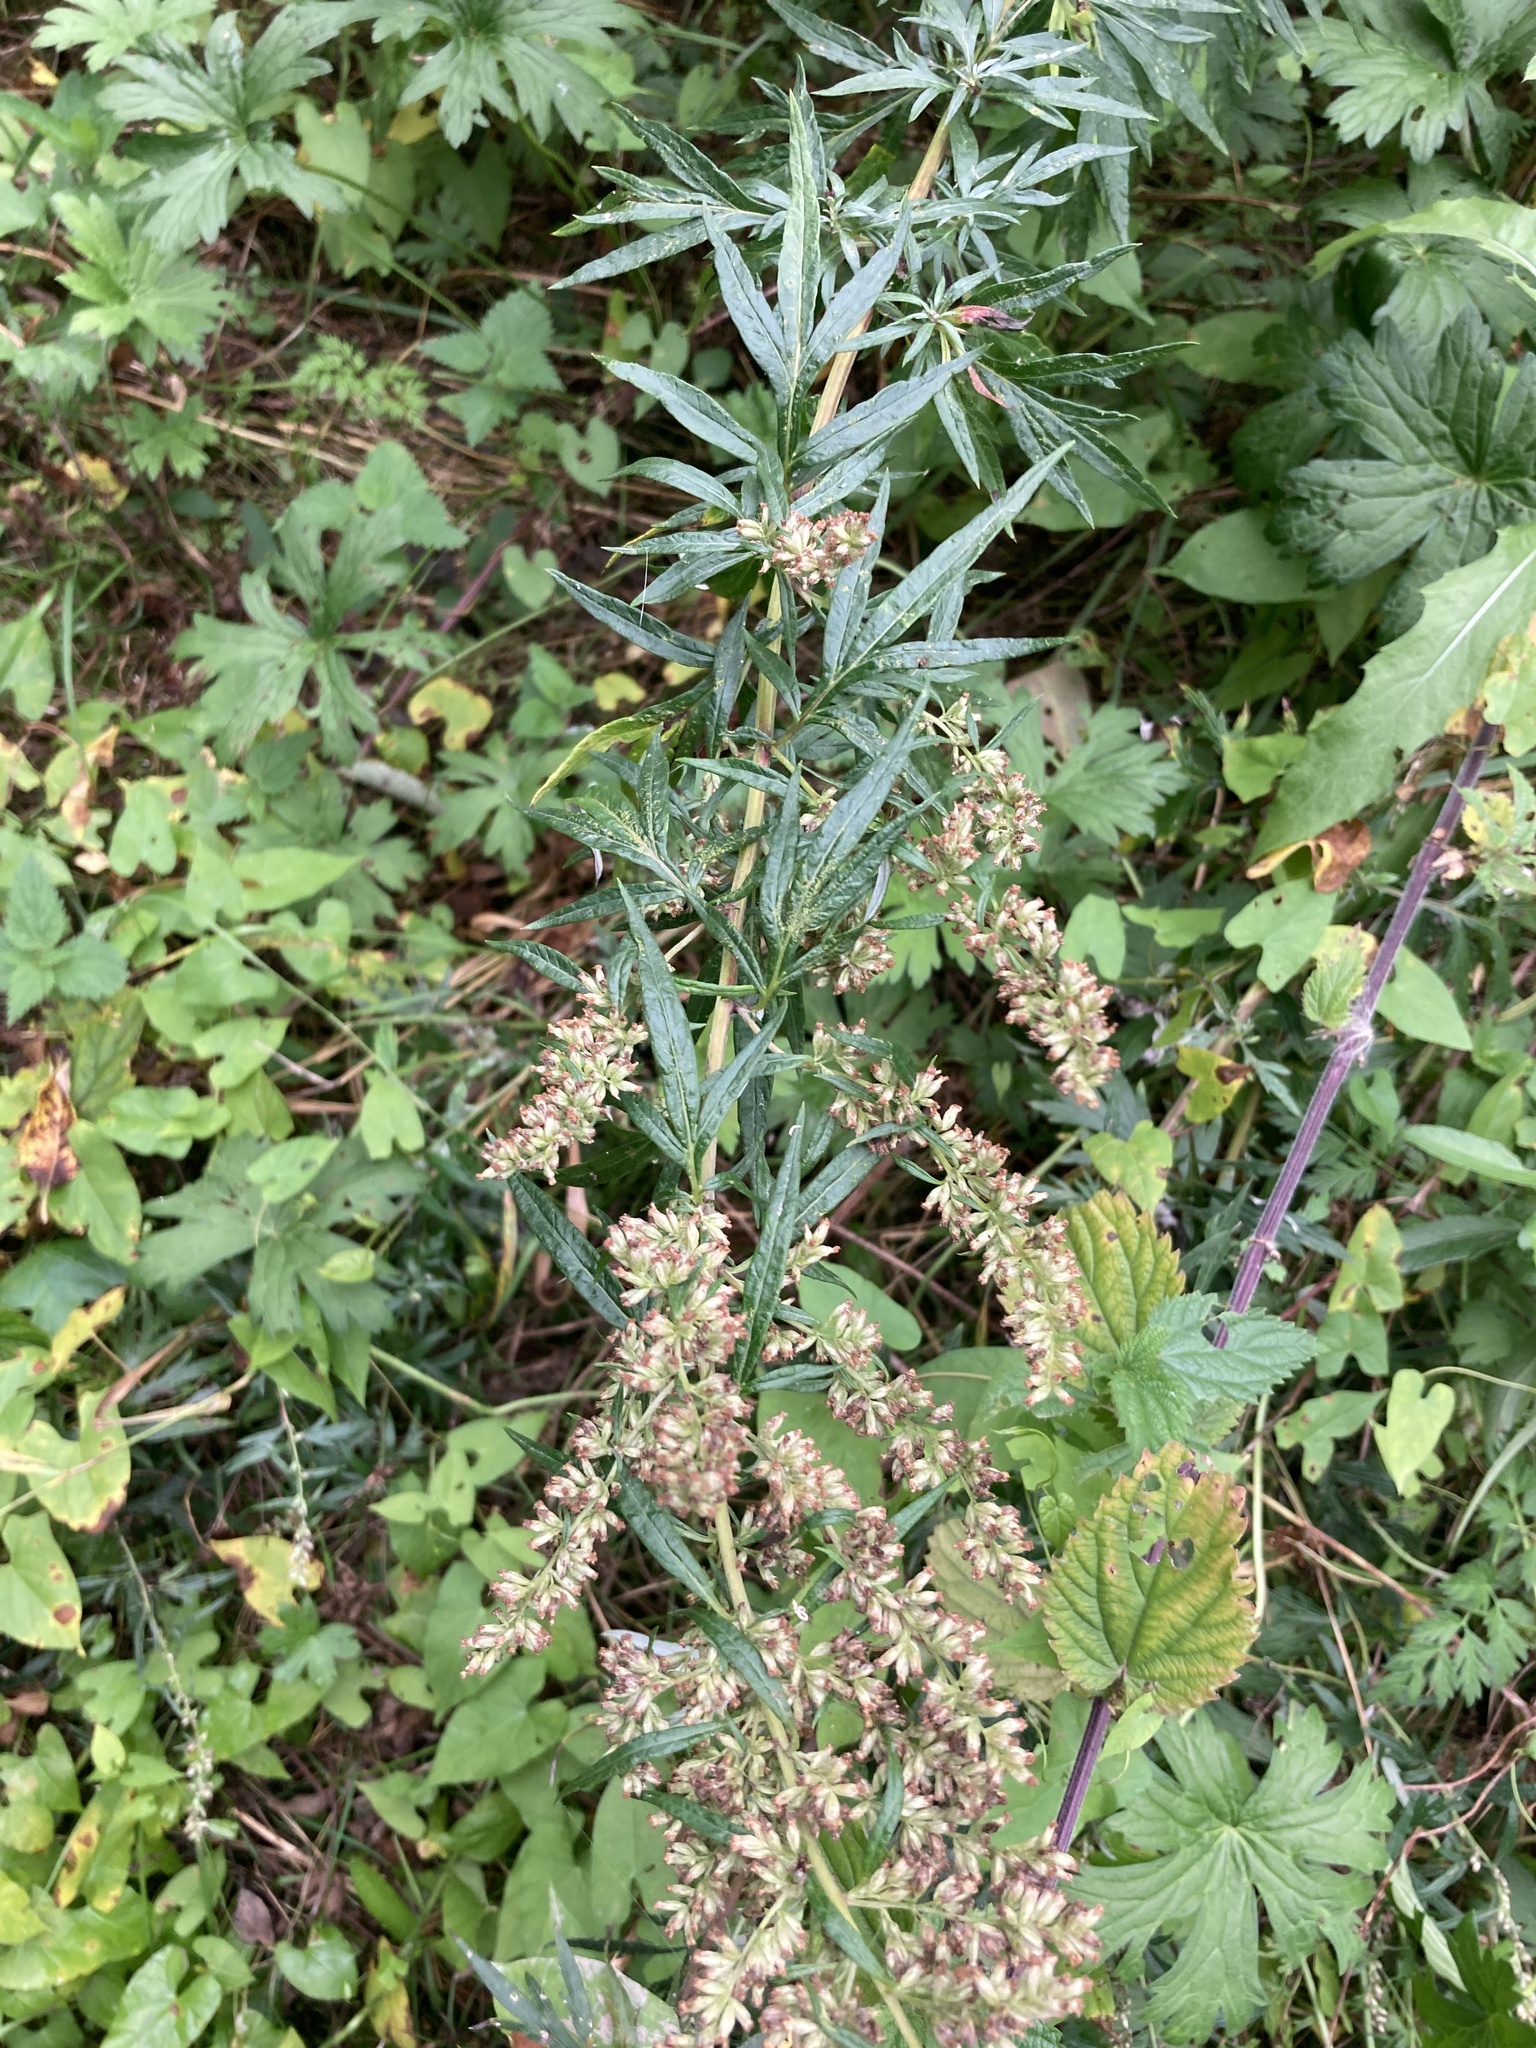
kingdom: Plantae
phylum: Tracheophyta
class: Magnoliopsida
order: Asterales
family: Asteraceae
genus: Artemisia
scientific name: Artemisia vulgaris
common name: Mugwort
